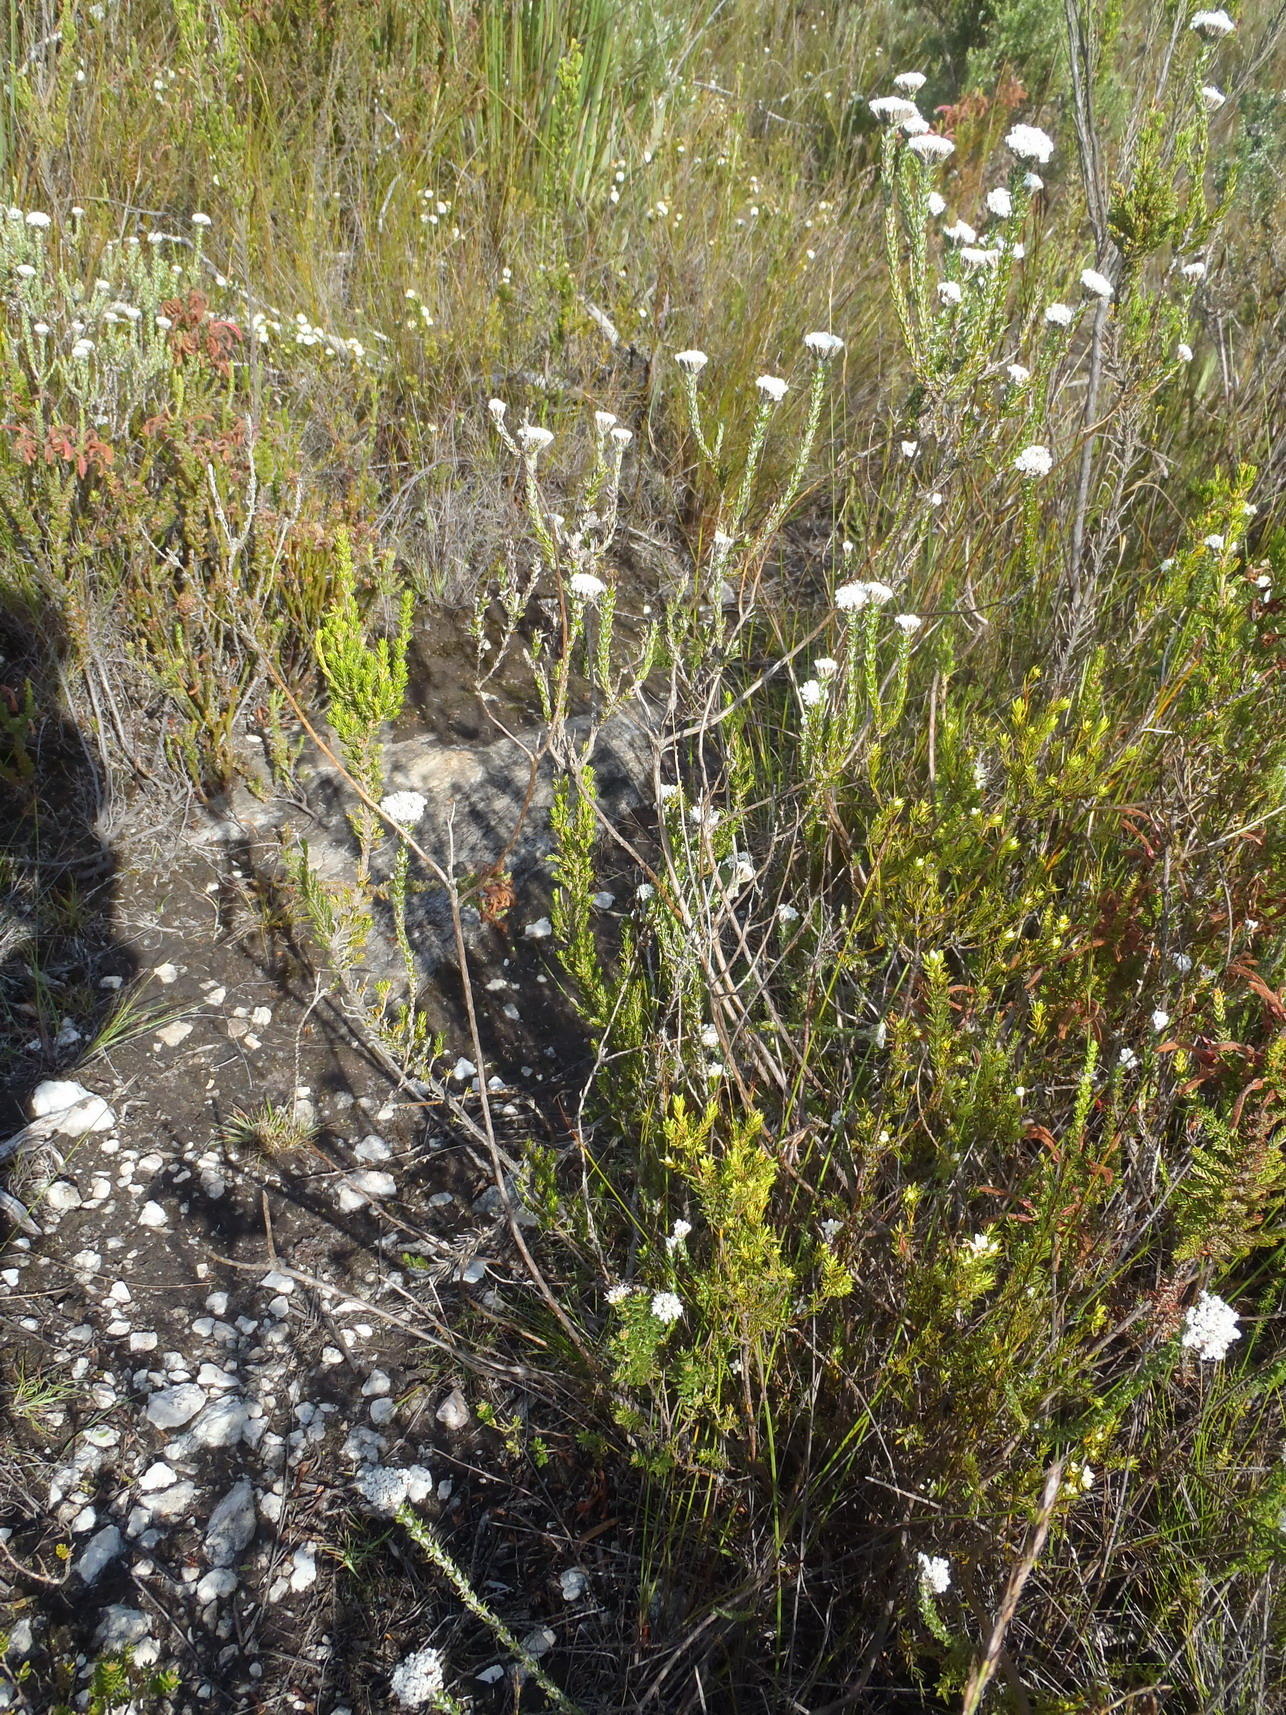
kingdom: Plantae
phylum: Tracheophyta
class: Magnoliopsida
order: Asterales
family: Asteraceae
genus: Metalasia
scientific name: Metalasia pungens
